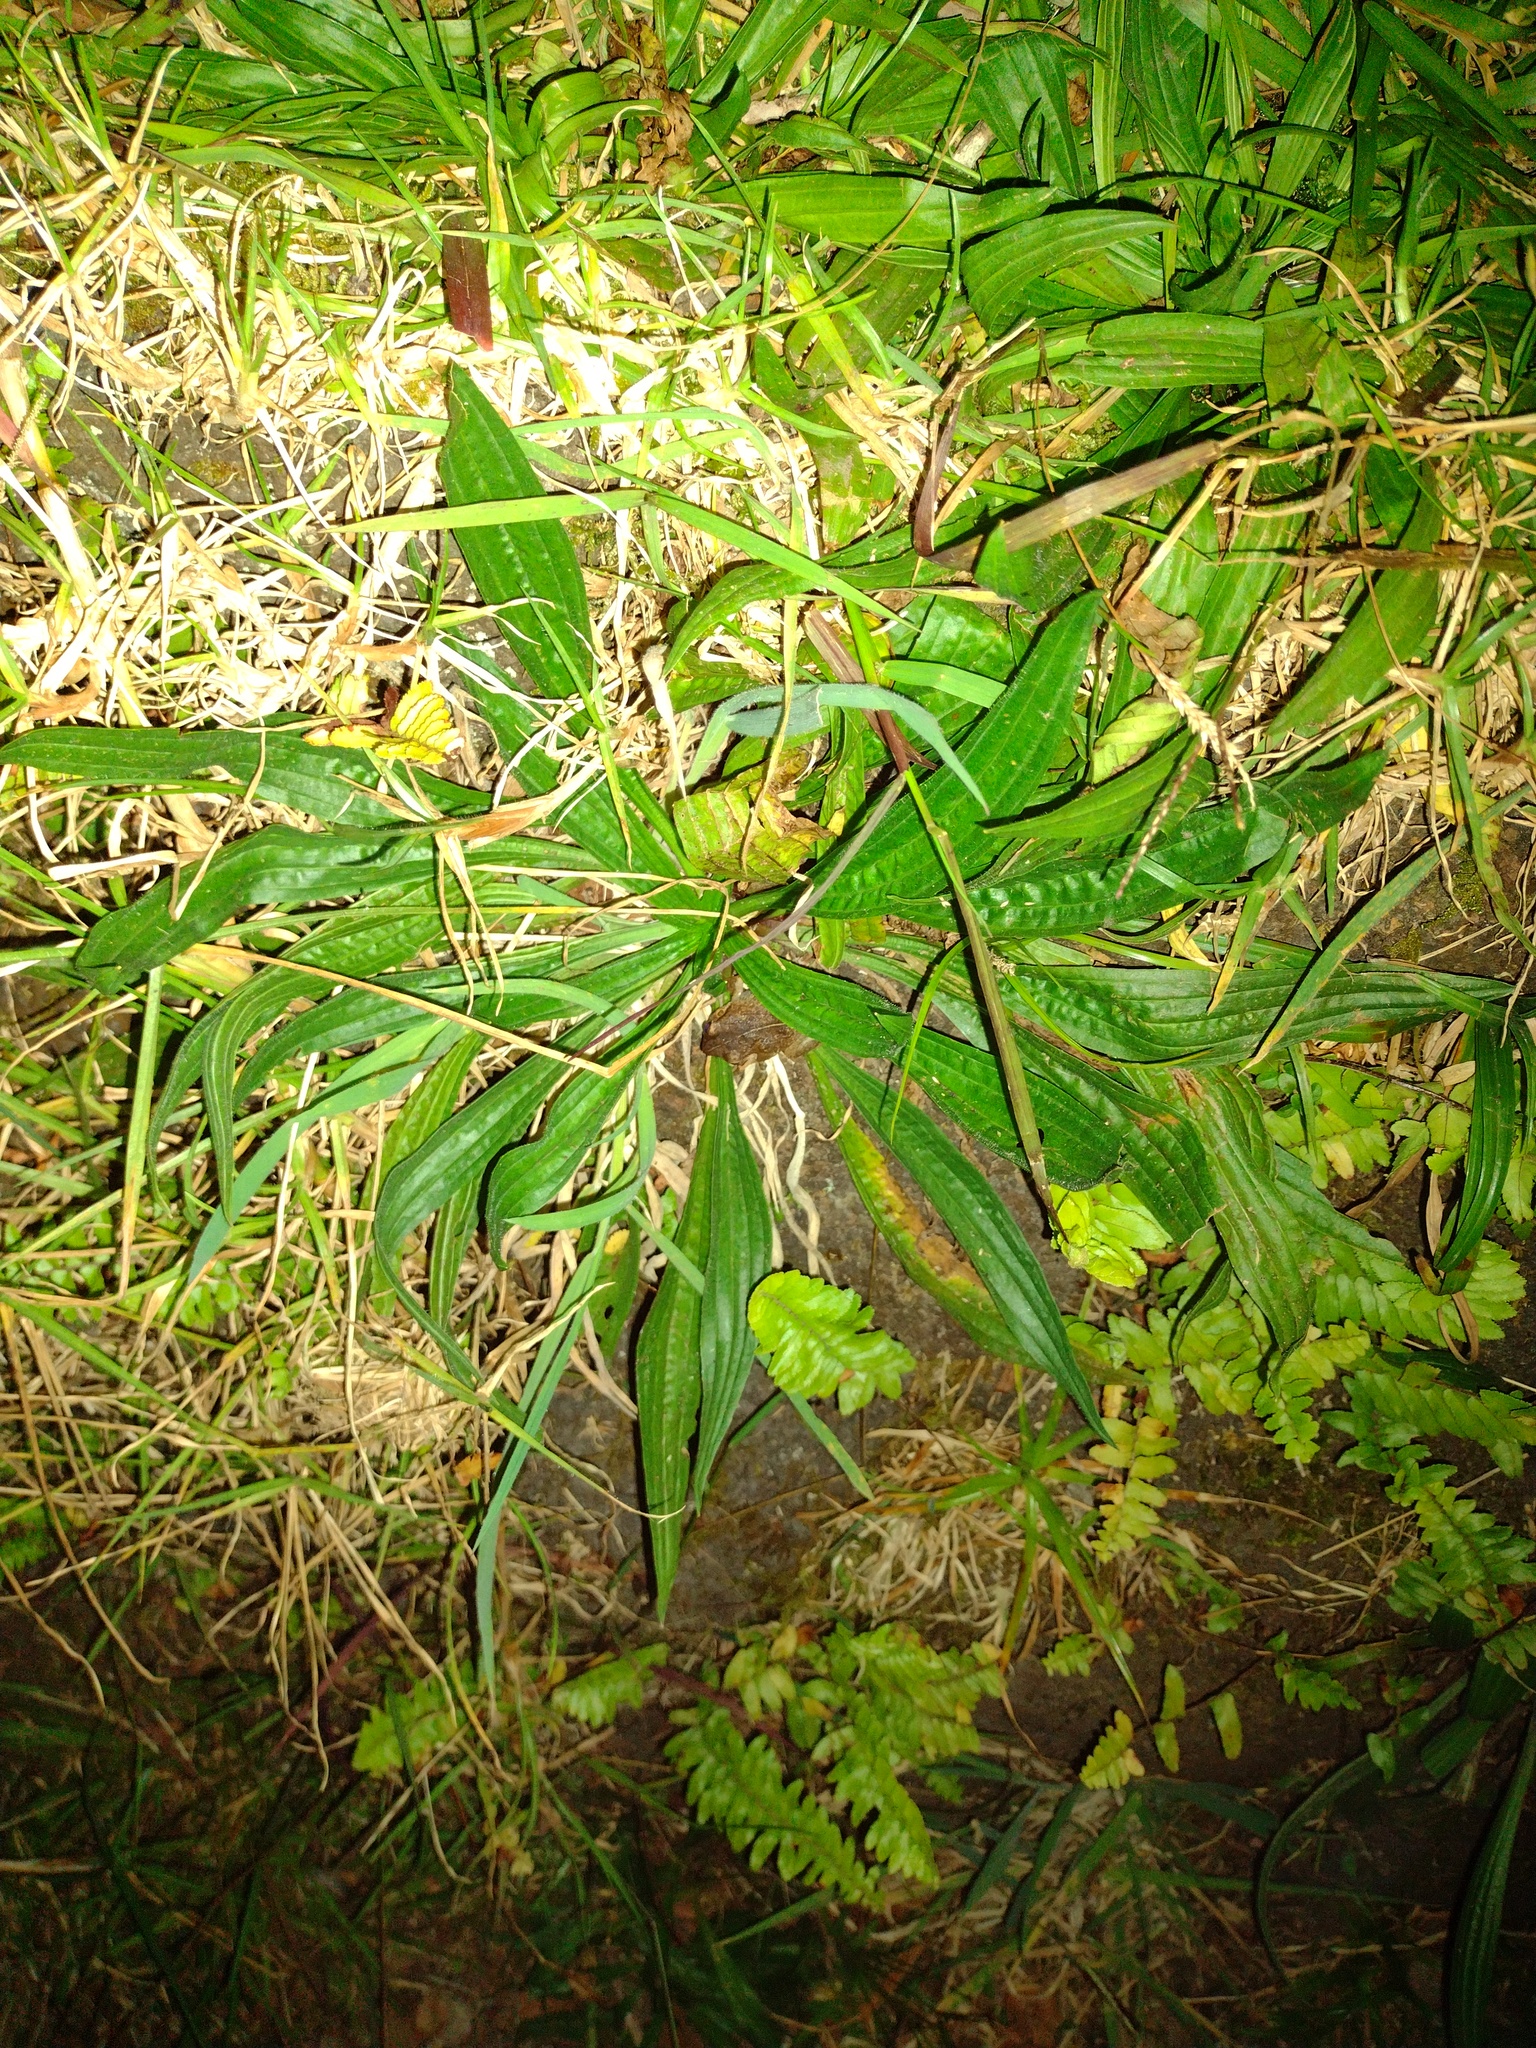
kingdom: Plantae
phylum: Tracheophyta
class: Magnoliopsida
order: Lamiales
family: Plantaginaceae
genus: Plantago
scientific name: Plantago lanceolata
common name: Ribwort plantain
